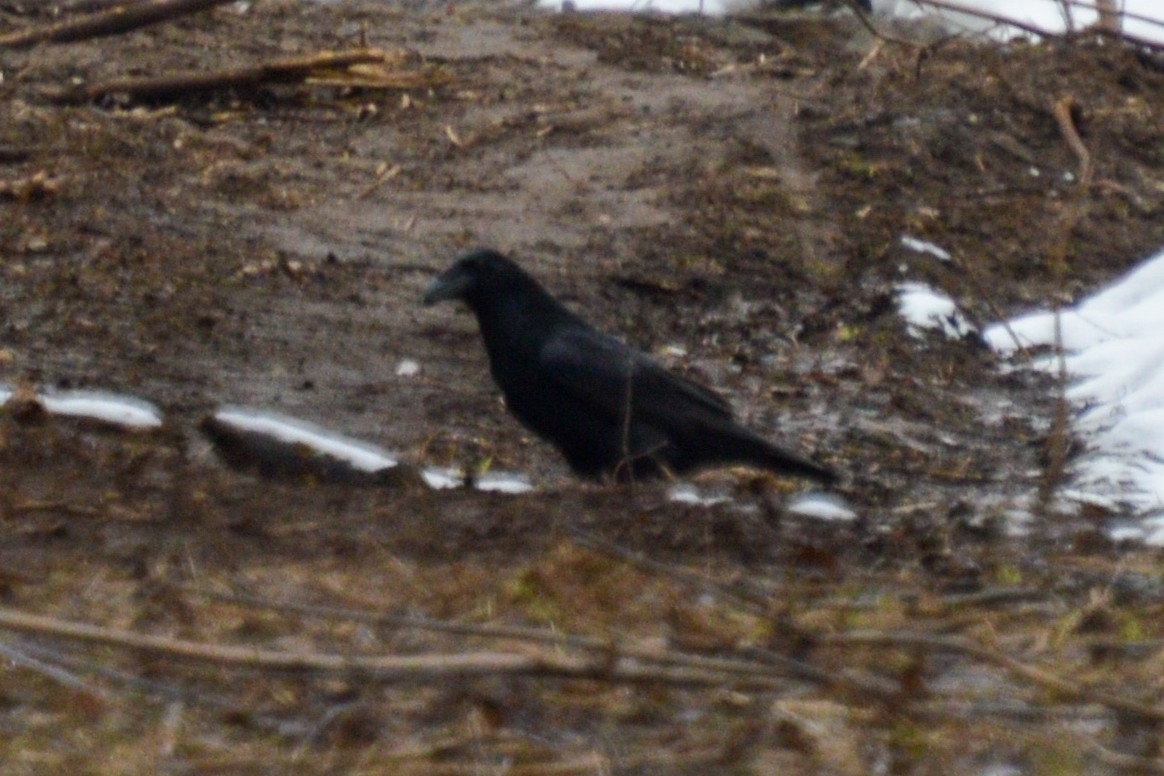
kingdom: Animalia
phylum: Chordata
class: Aves
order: Passeriformes
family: Corvidae
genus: Corvus
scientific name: Corvus corax
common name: Common raven
